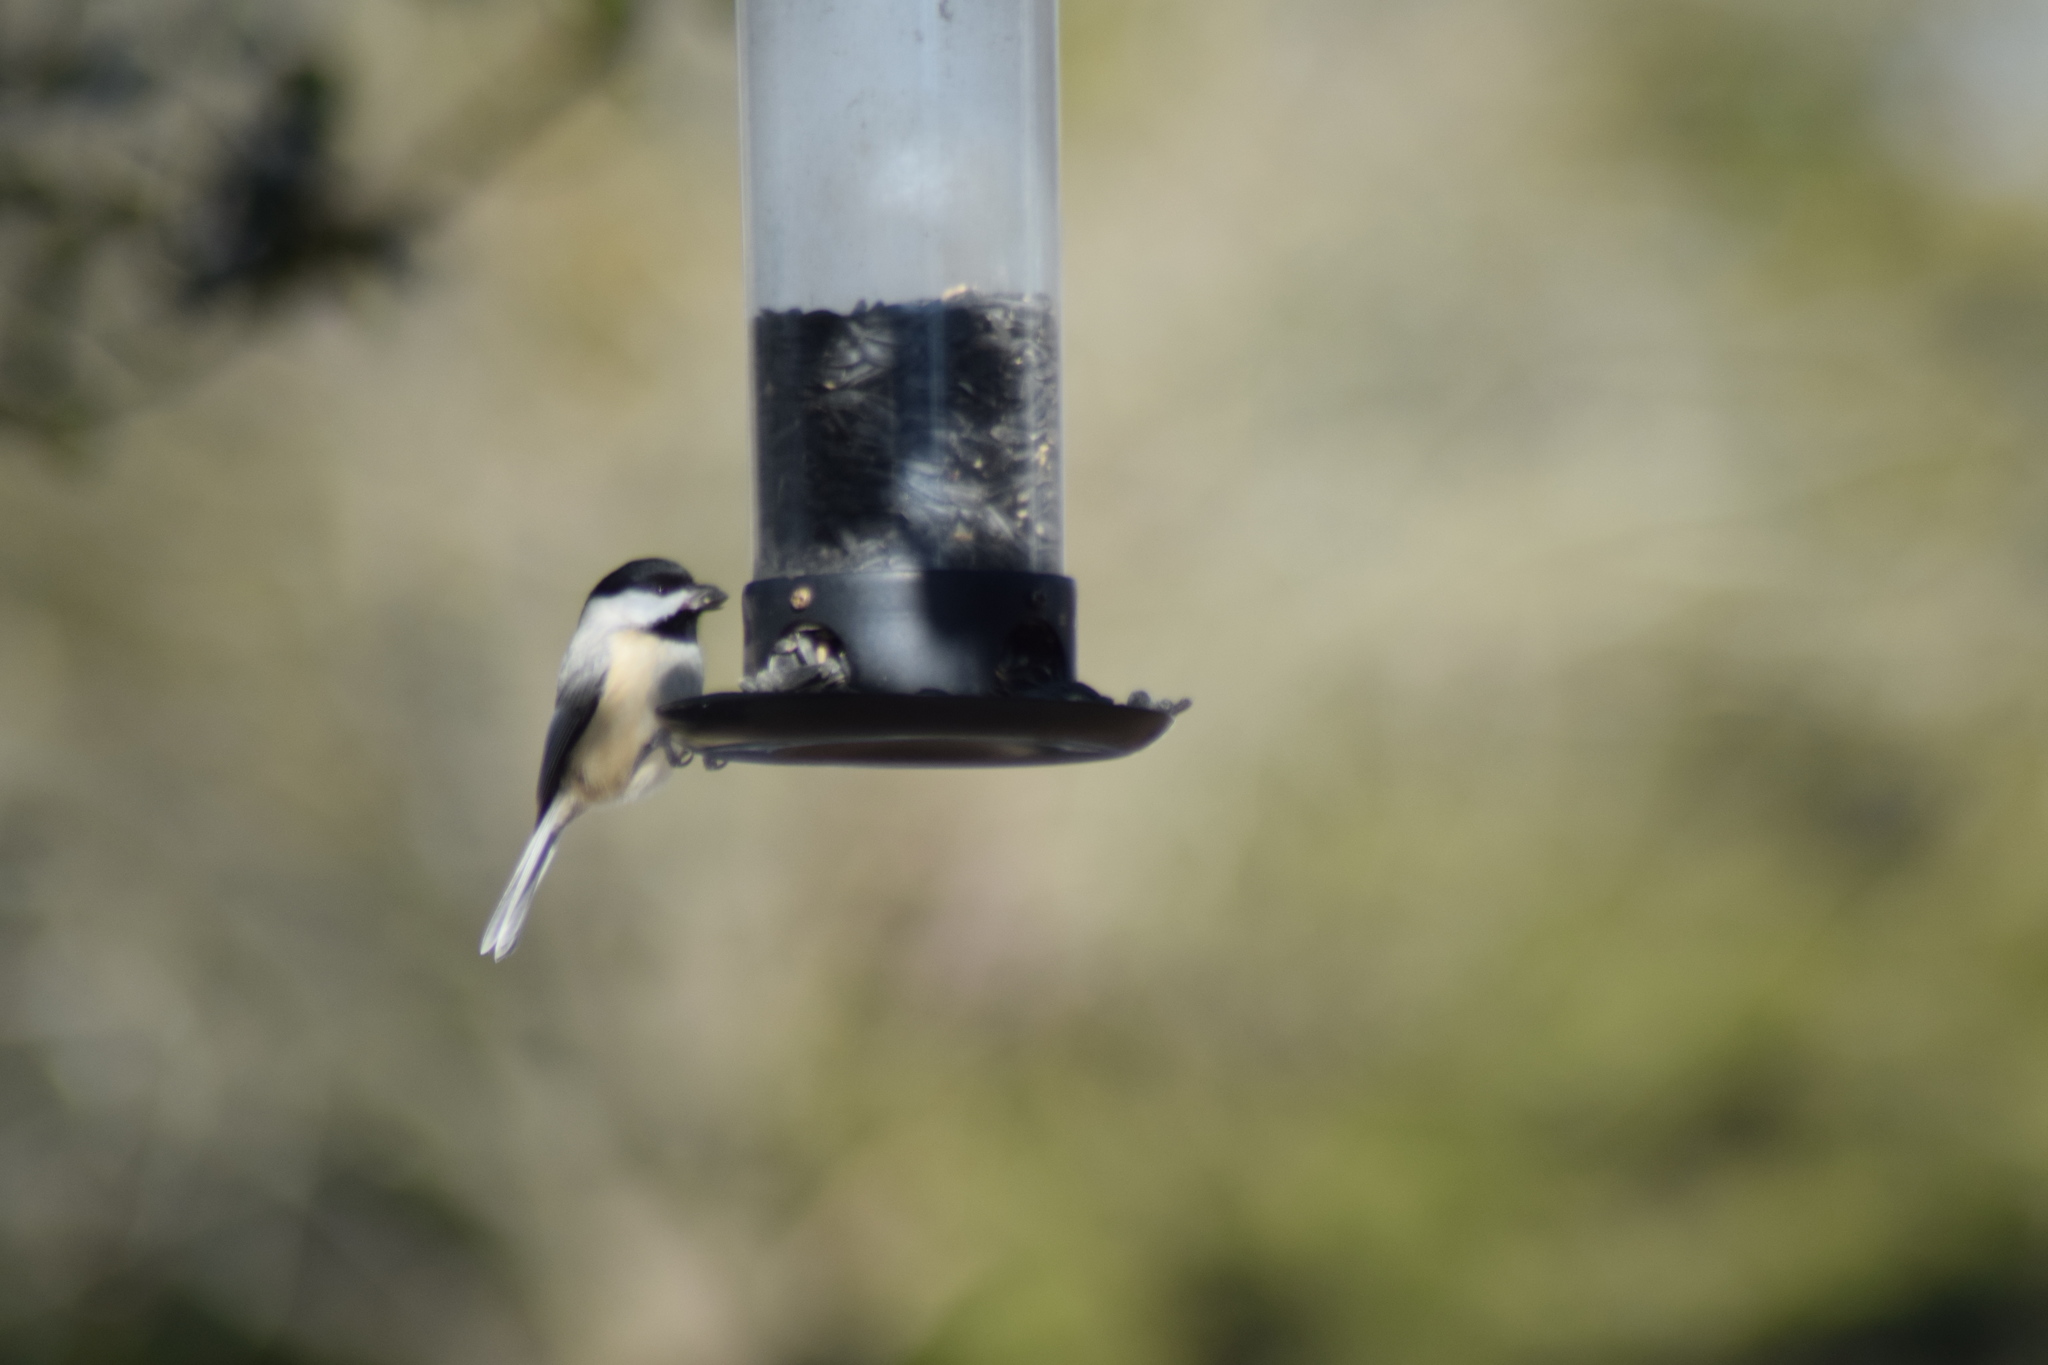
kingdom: Animalia
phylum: Chordata
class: Aves
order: Passeriformes
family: Paridae
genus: Poecile
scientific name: Poecile carolinensis
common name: Carolina chickadee
